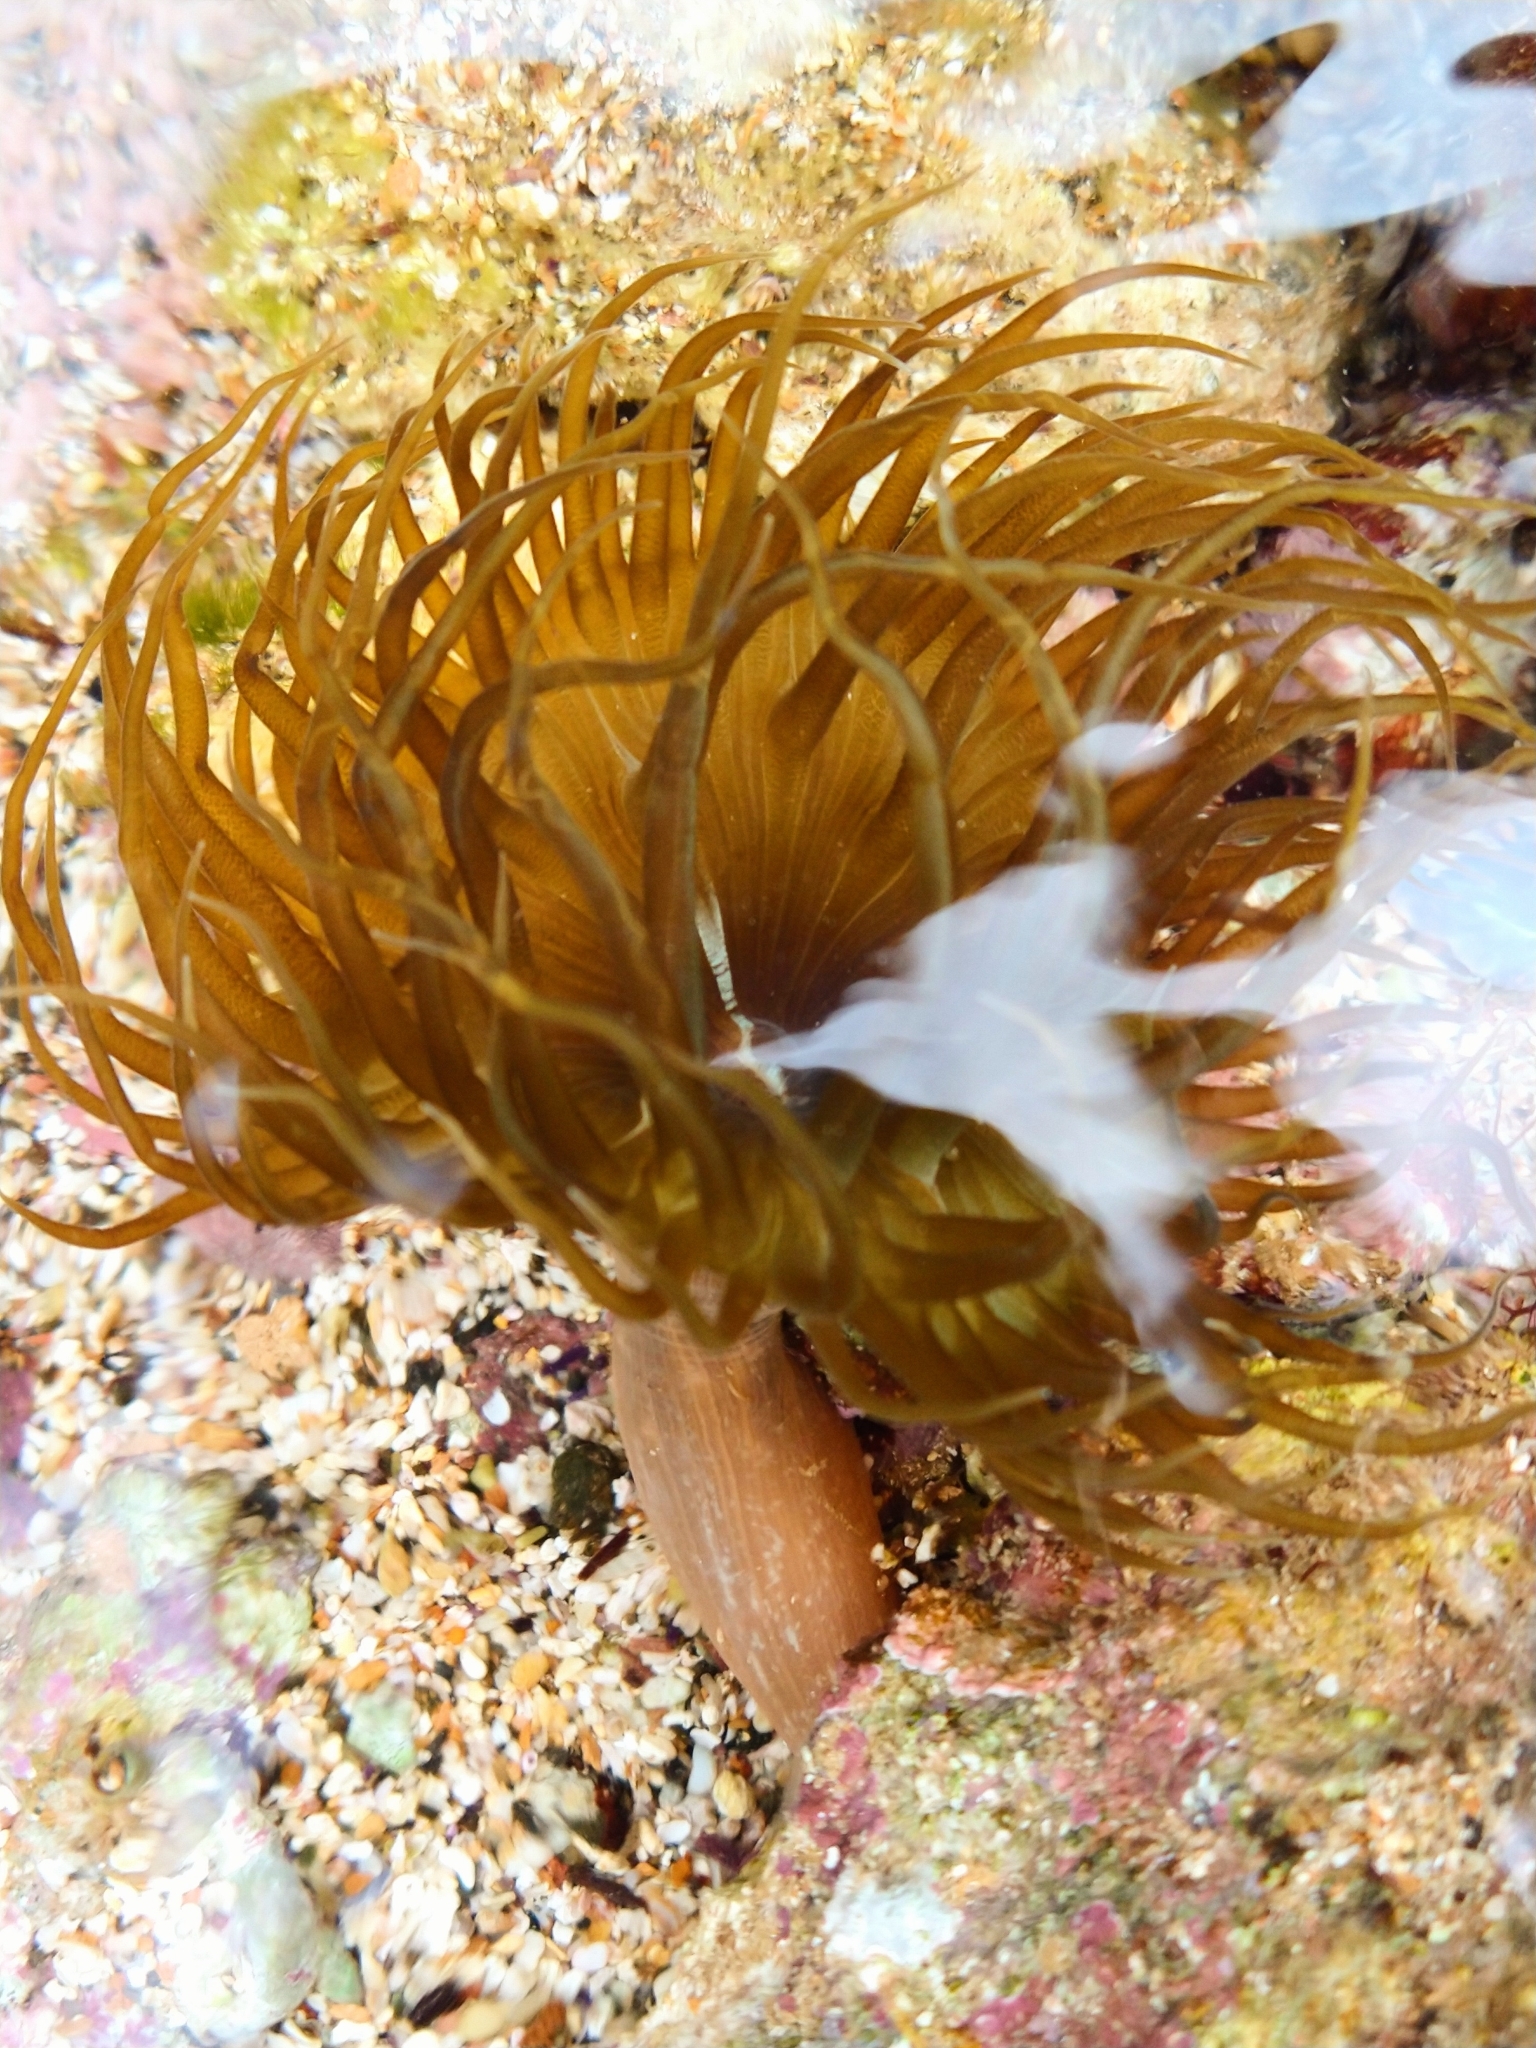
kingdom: Animalia
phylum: Cnidaria
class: Anthozoa
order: Actiniaria
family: Aiptasiidae
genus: Aiptasia
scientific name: Aiptasia couchii
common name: Trumpet anemone
